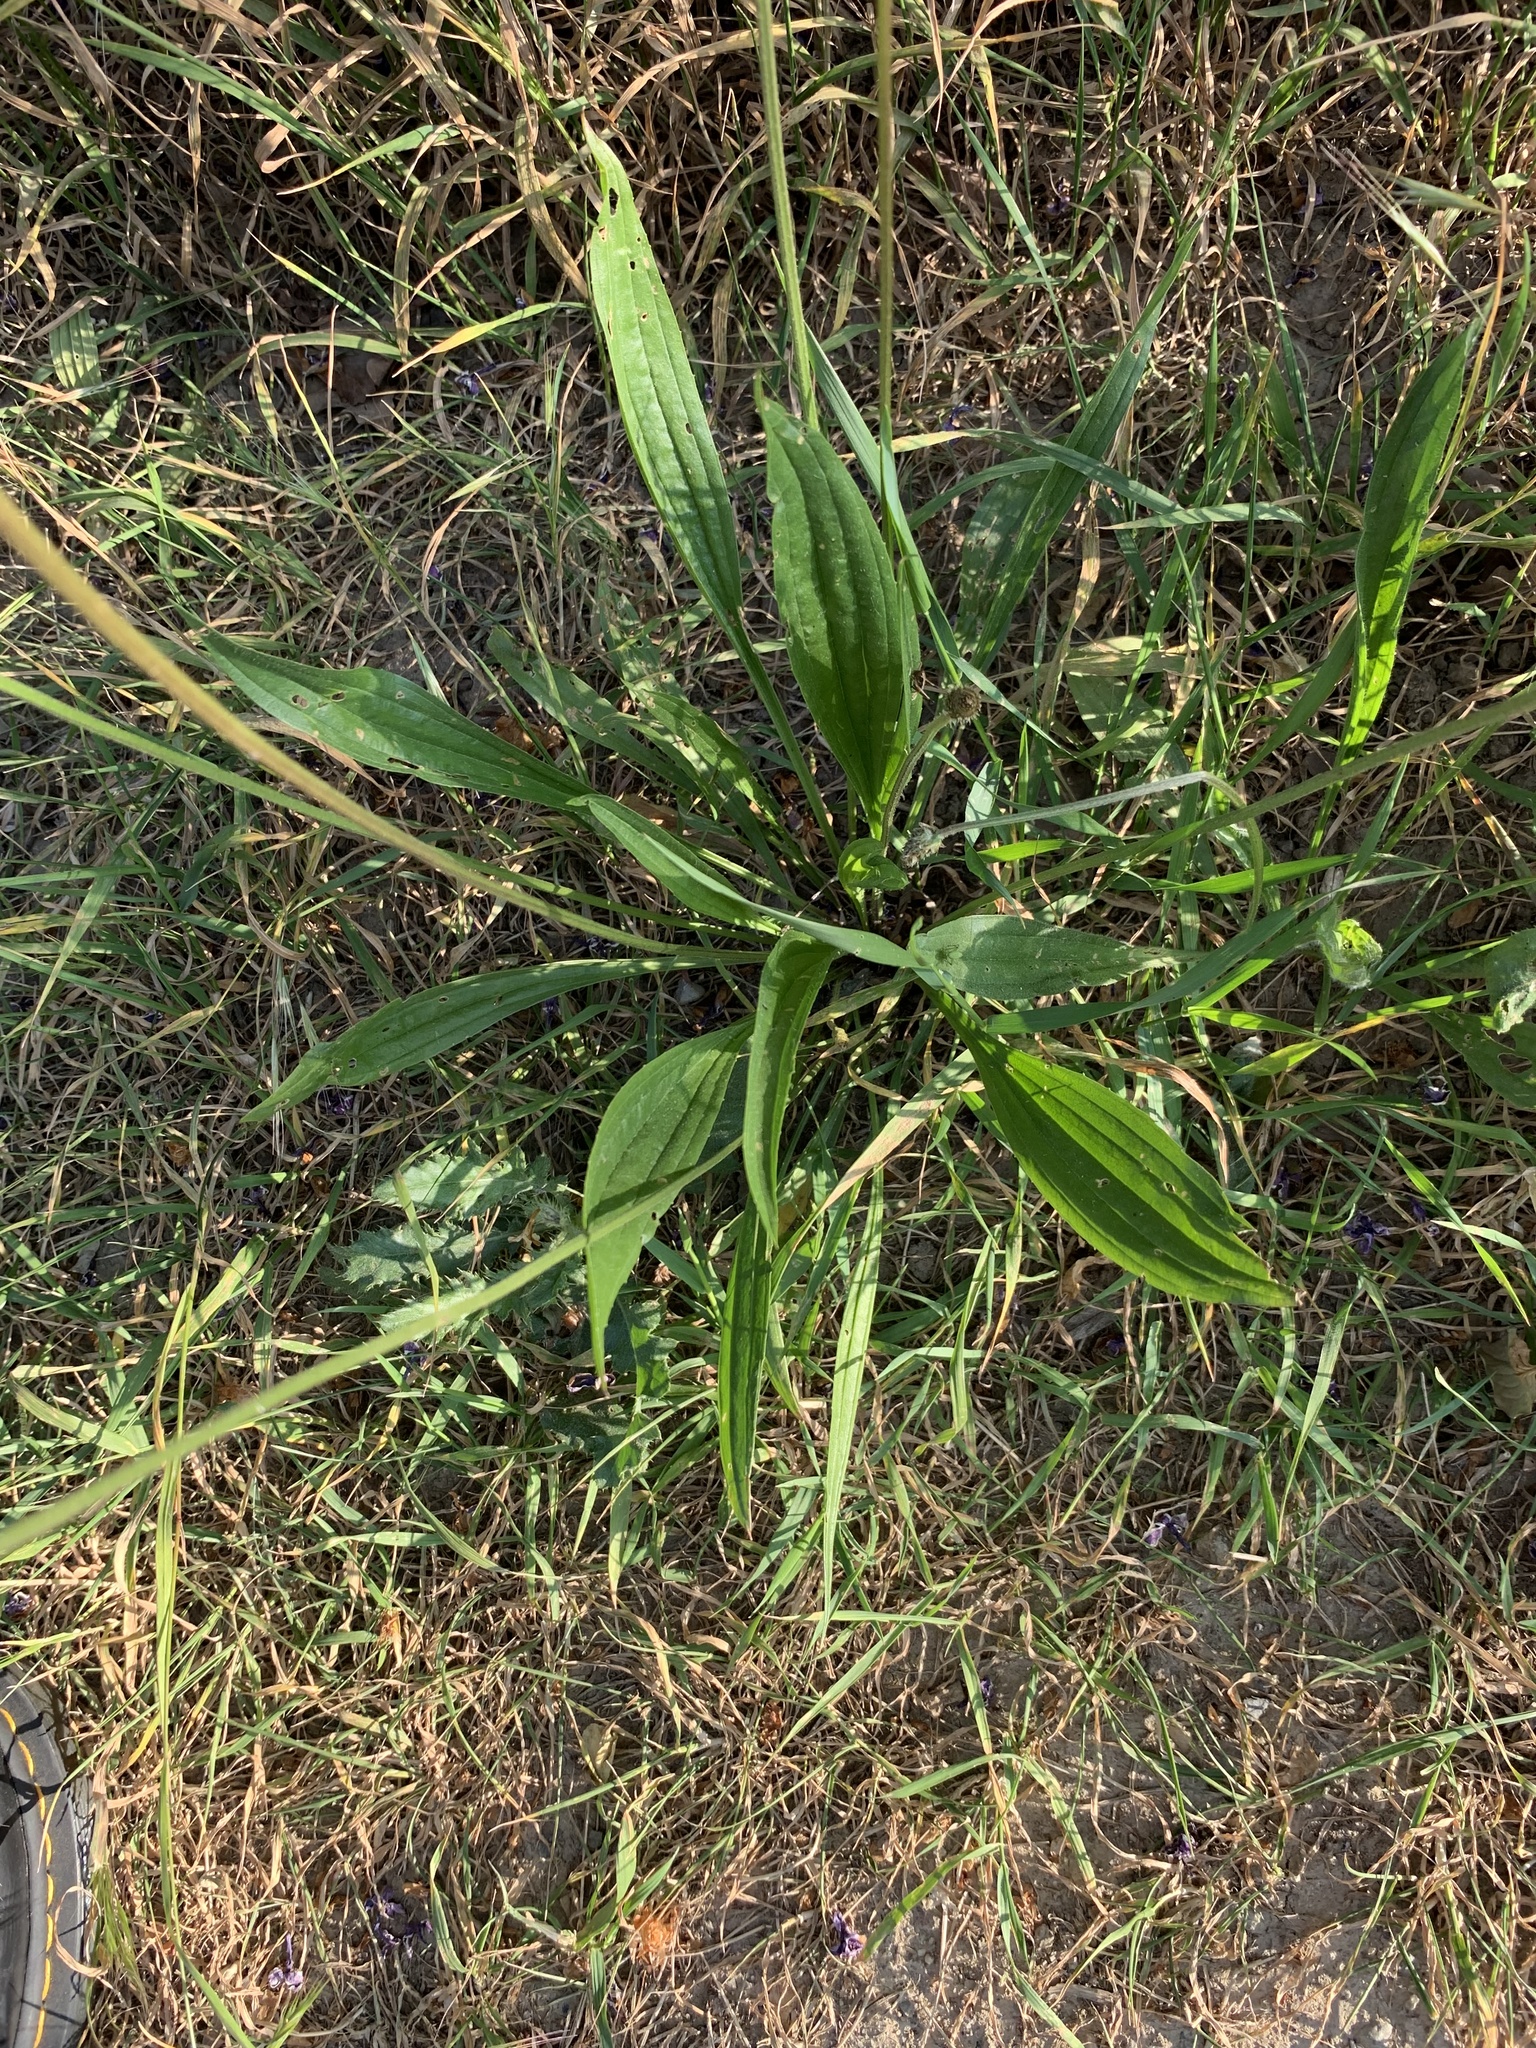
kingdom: Plantae
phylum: Tracheophyta
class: Magnoliopsida
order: Lamiales
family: Plantaginaceae
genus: Plantago
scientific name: Plantago lanceolata
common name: Ribwort plantain
